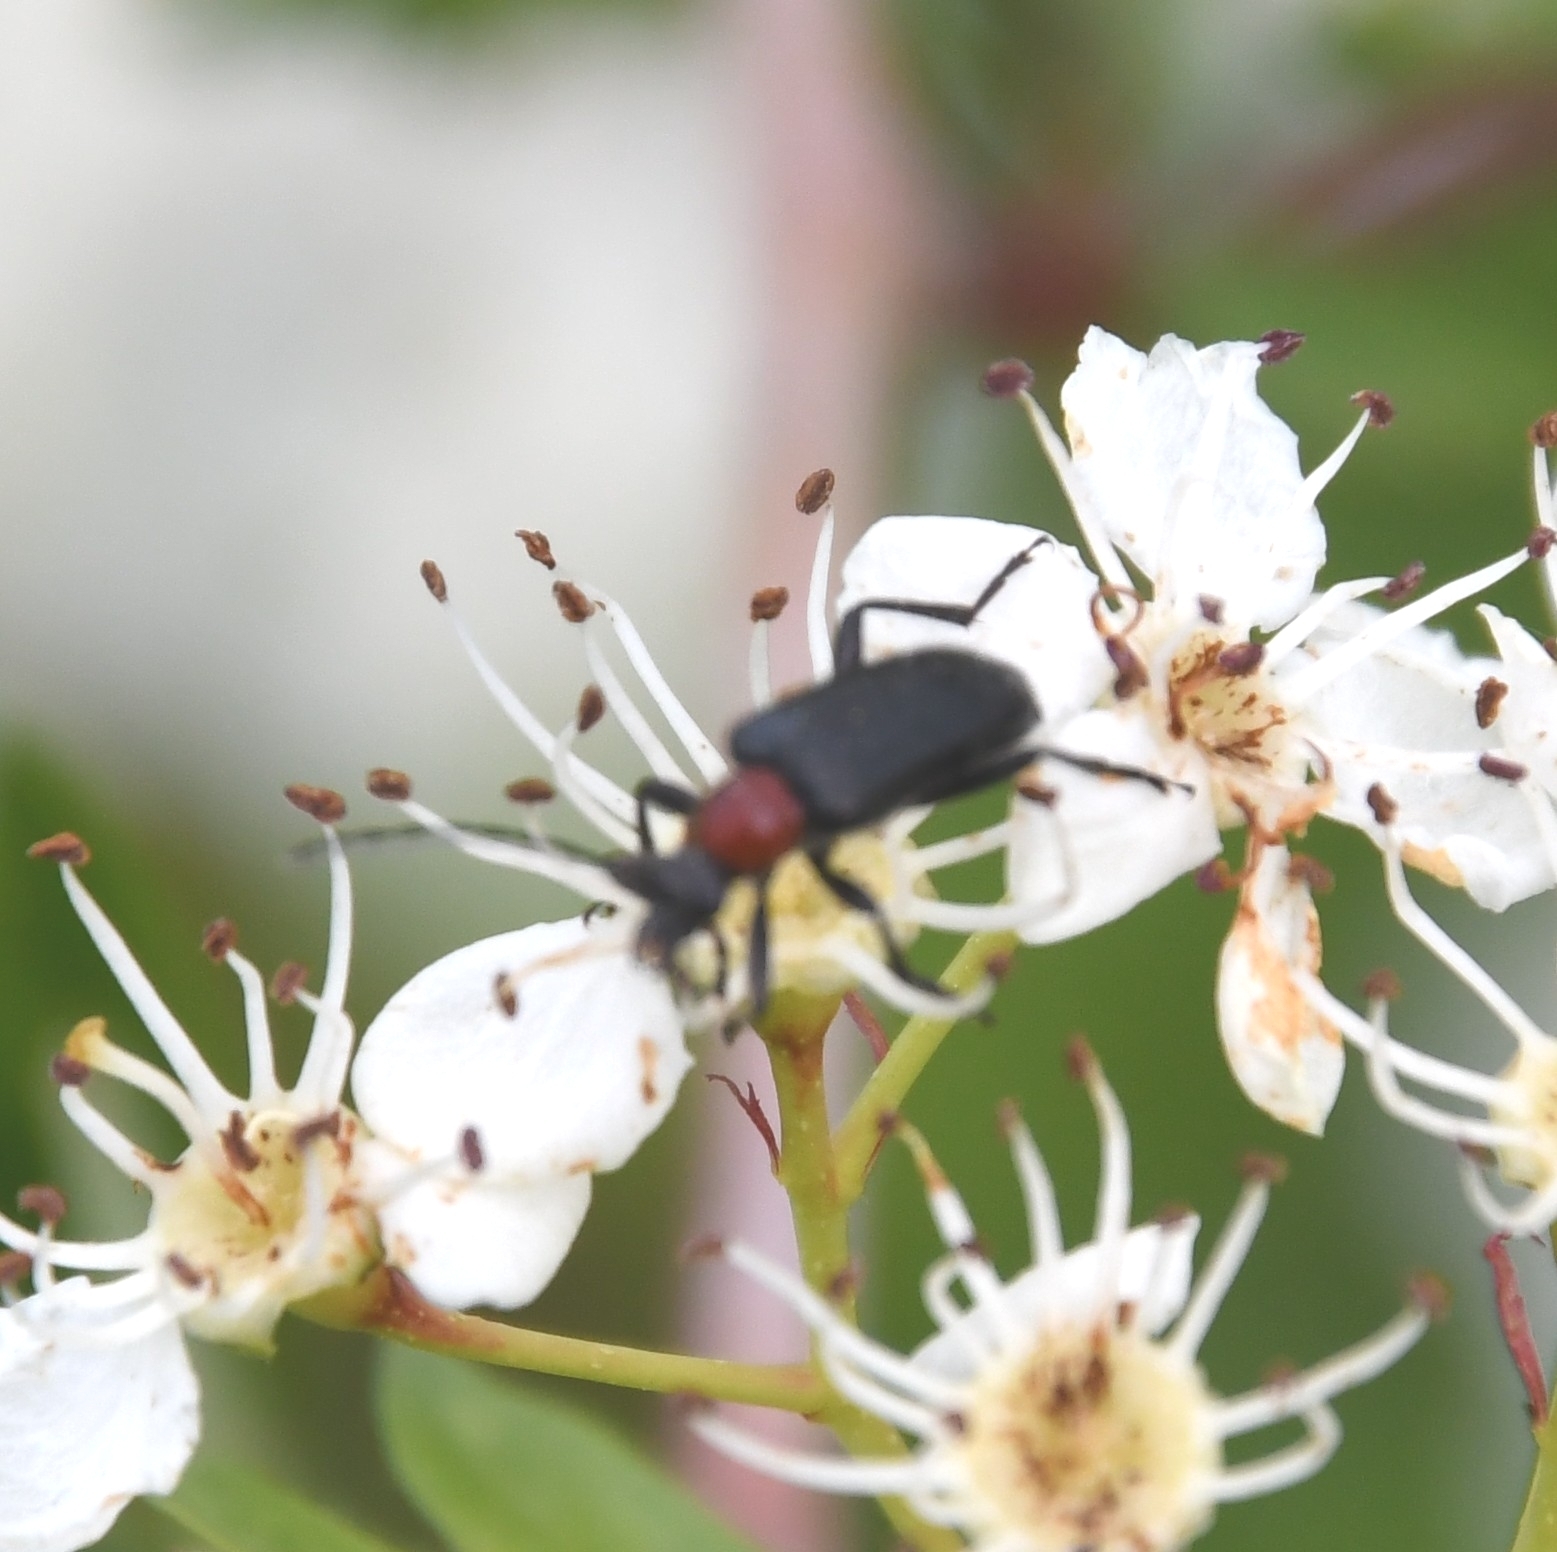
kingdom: Animalia
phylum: Arthropoda
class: Insecta
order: Coleoptera
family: Cerambycidae
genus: Dinoptera
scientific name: Dinoptera collaris
